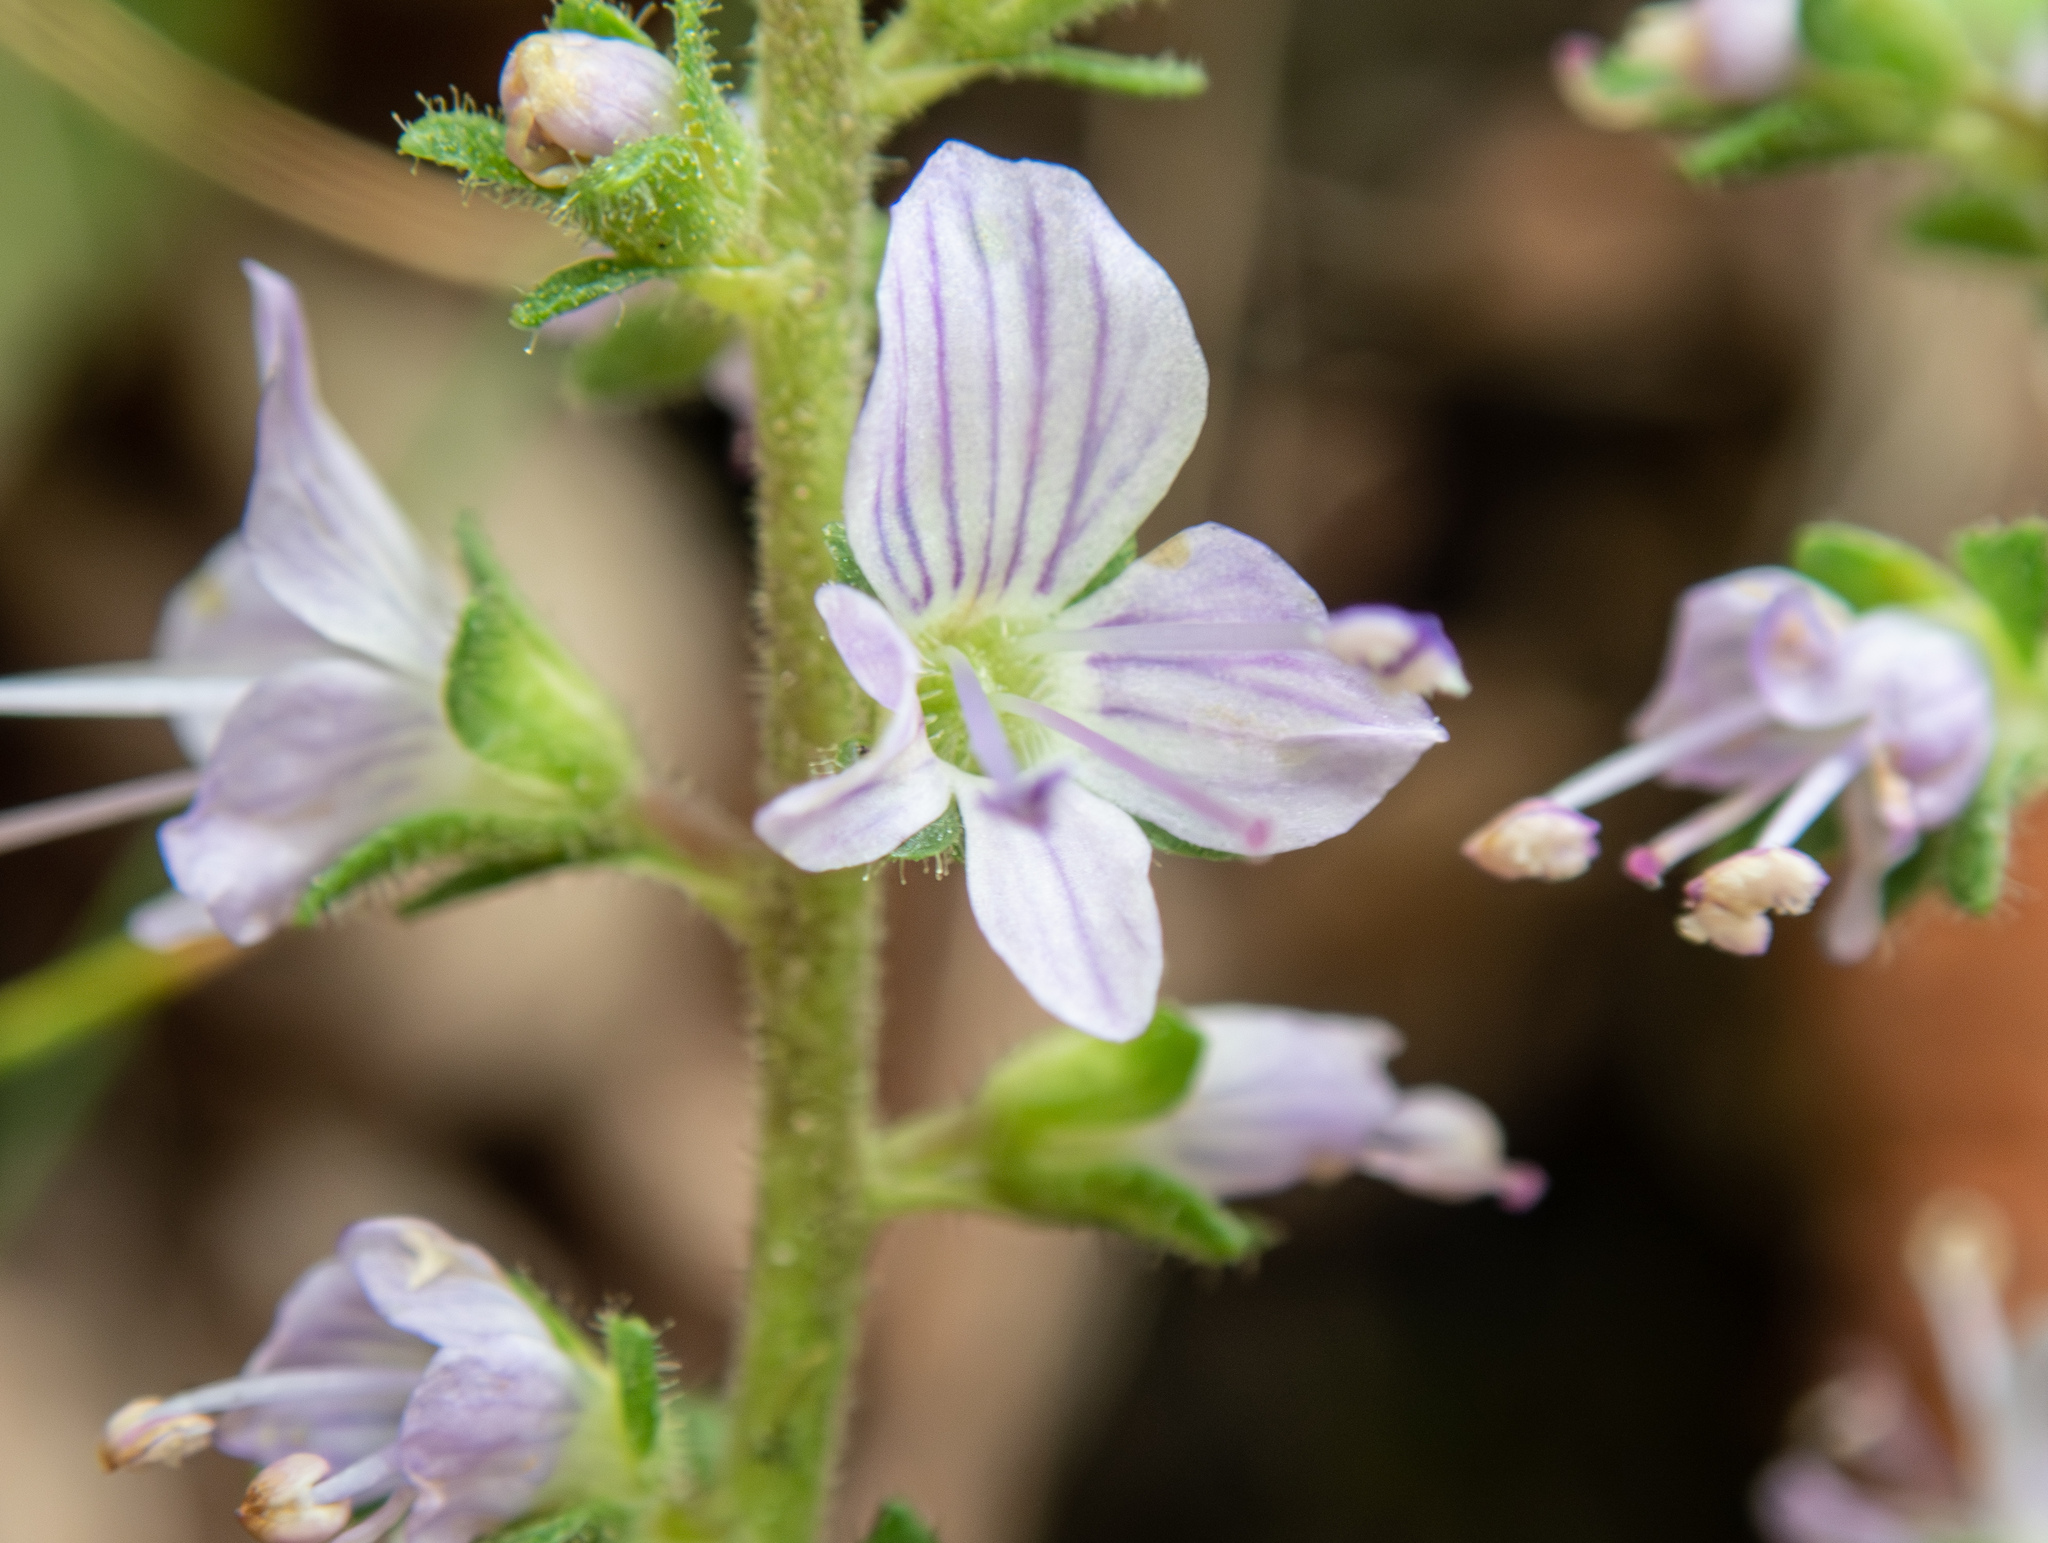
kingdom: Plantae
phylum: Tracheophyta
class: Magnoliopsida
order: Lamiales
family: Plantaginaceae
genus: Veronica
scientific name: Veronica officinalis
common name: Common speedwell
